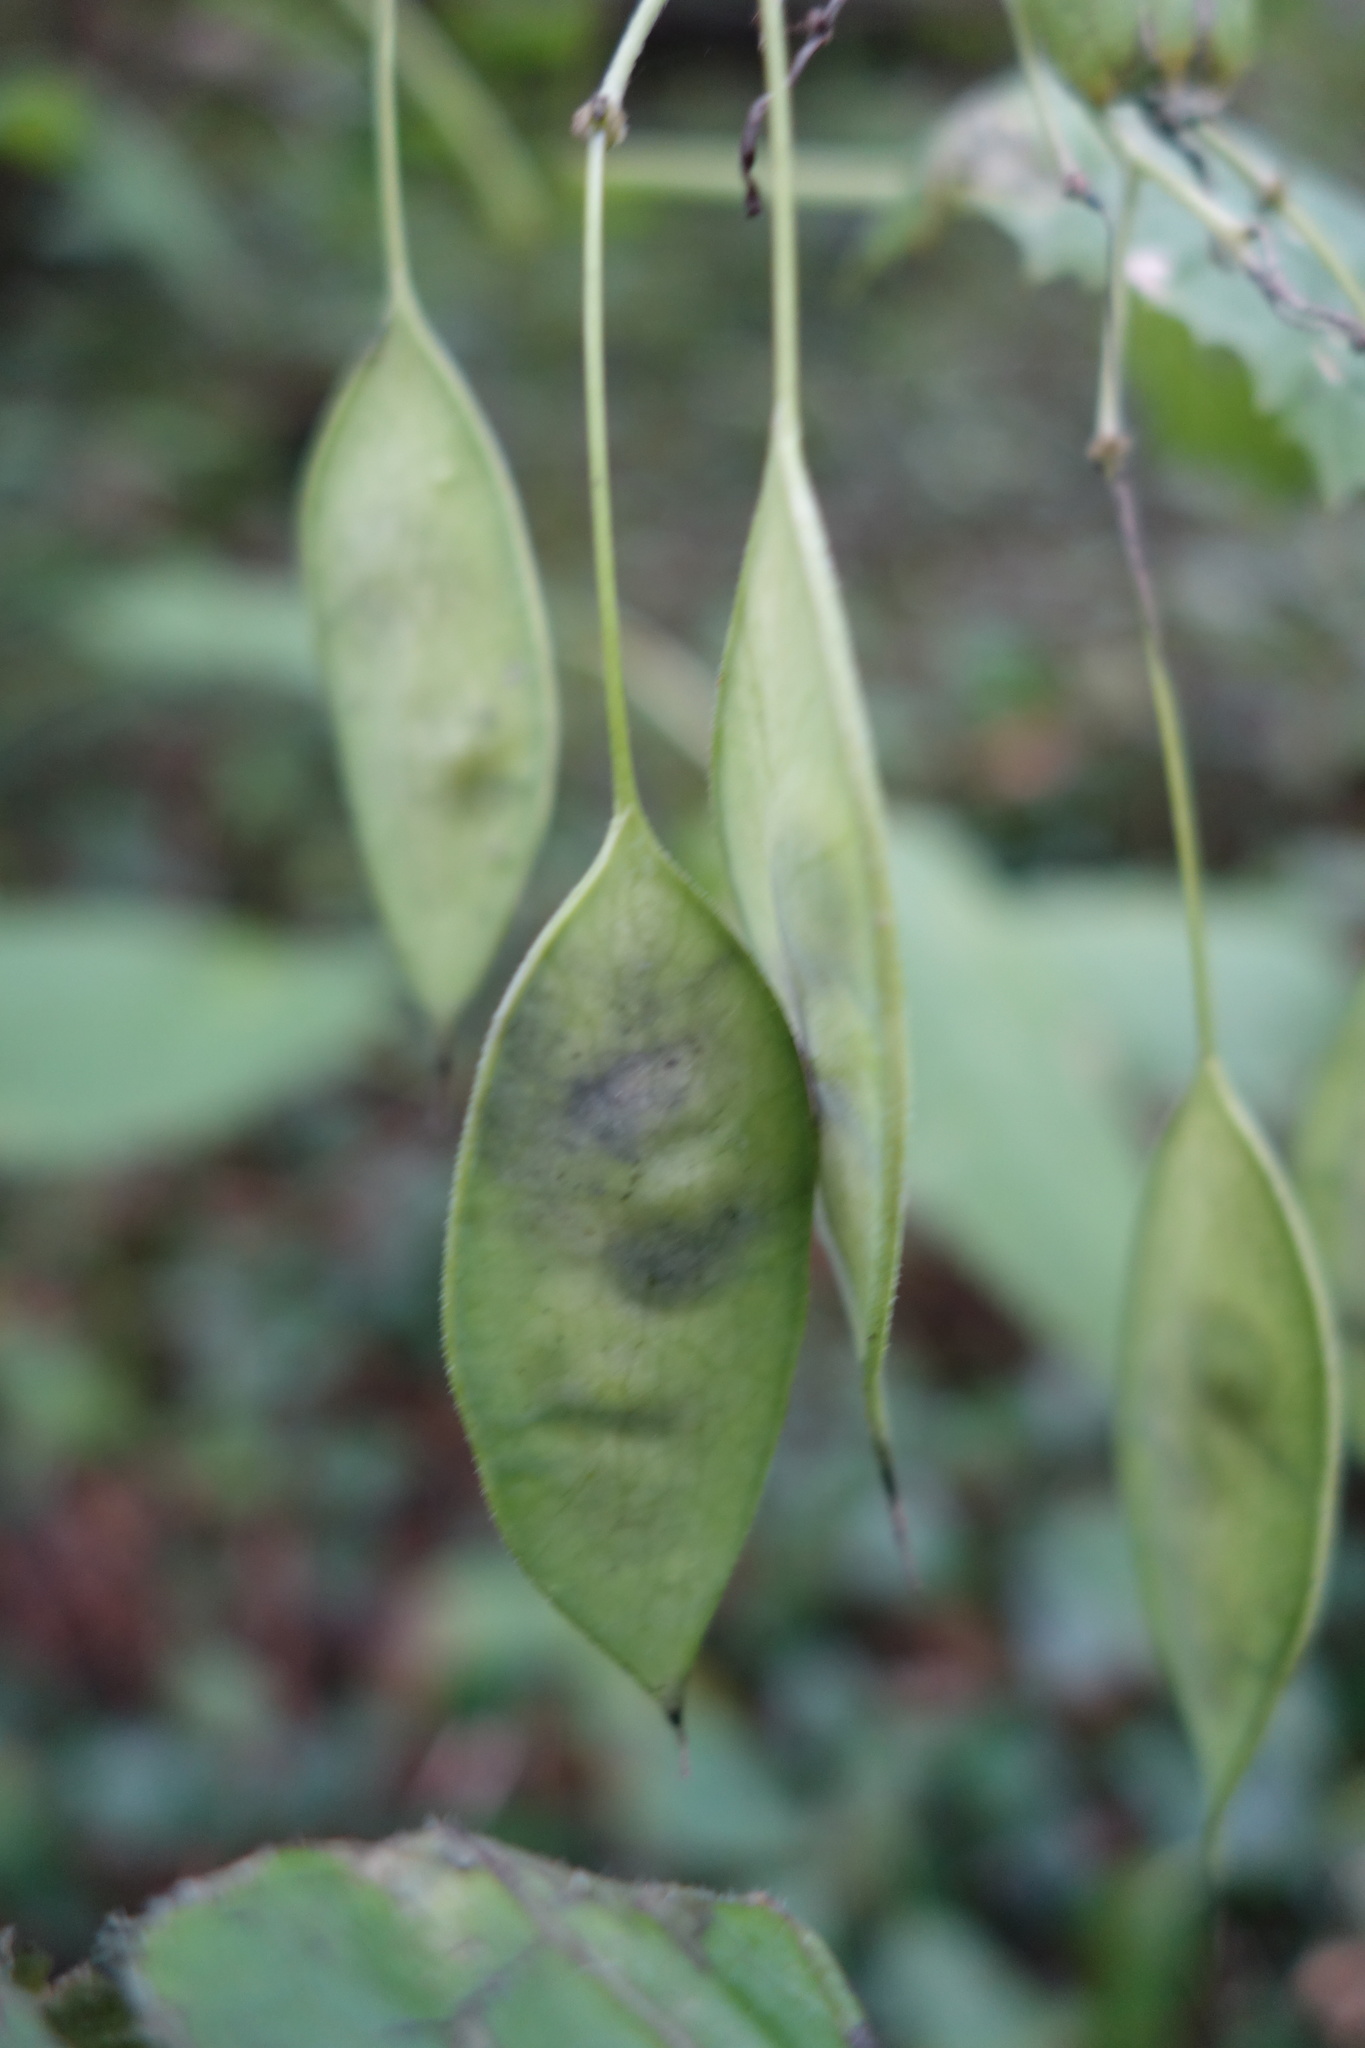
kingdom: Plantae
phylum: Tracheophyta
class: Magnoliopsida
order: Brassicales
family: Brassicaceae
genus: Lunaria
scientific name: Lunaria rediviva
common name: Perennial honesty
